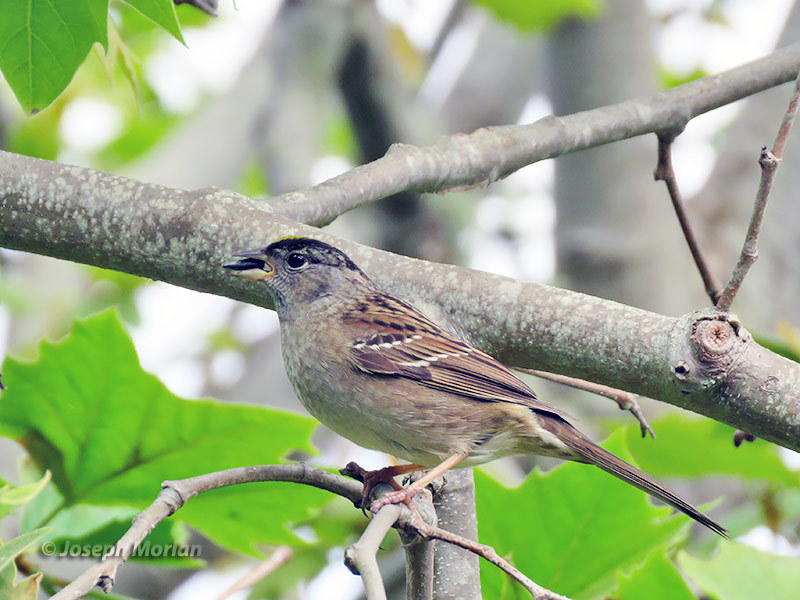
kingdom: Animalia
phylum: Chordata
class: Aves
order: Passeriformes
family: Passerellidae
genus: Zonotrichia
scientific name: Zonotrichia atricapilla
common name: Golden-crowned sparrow
